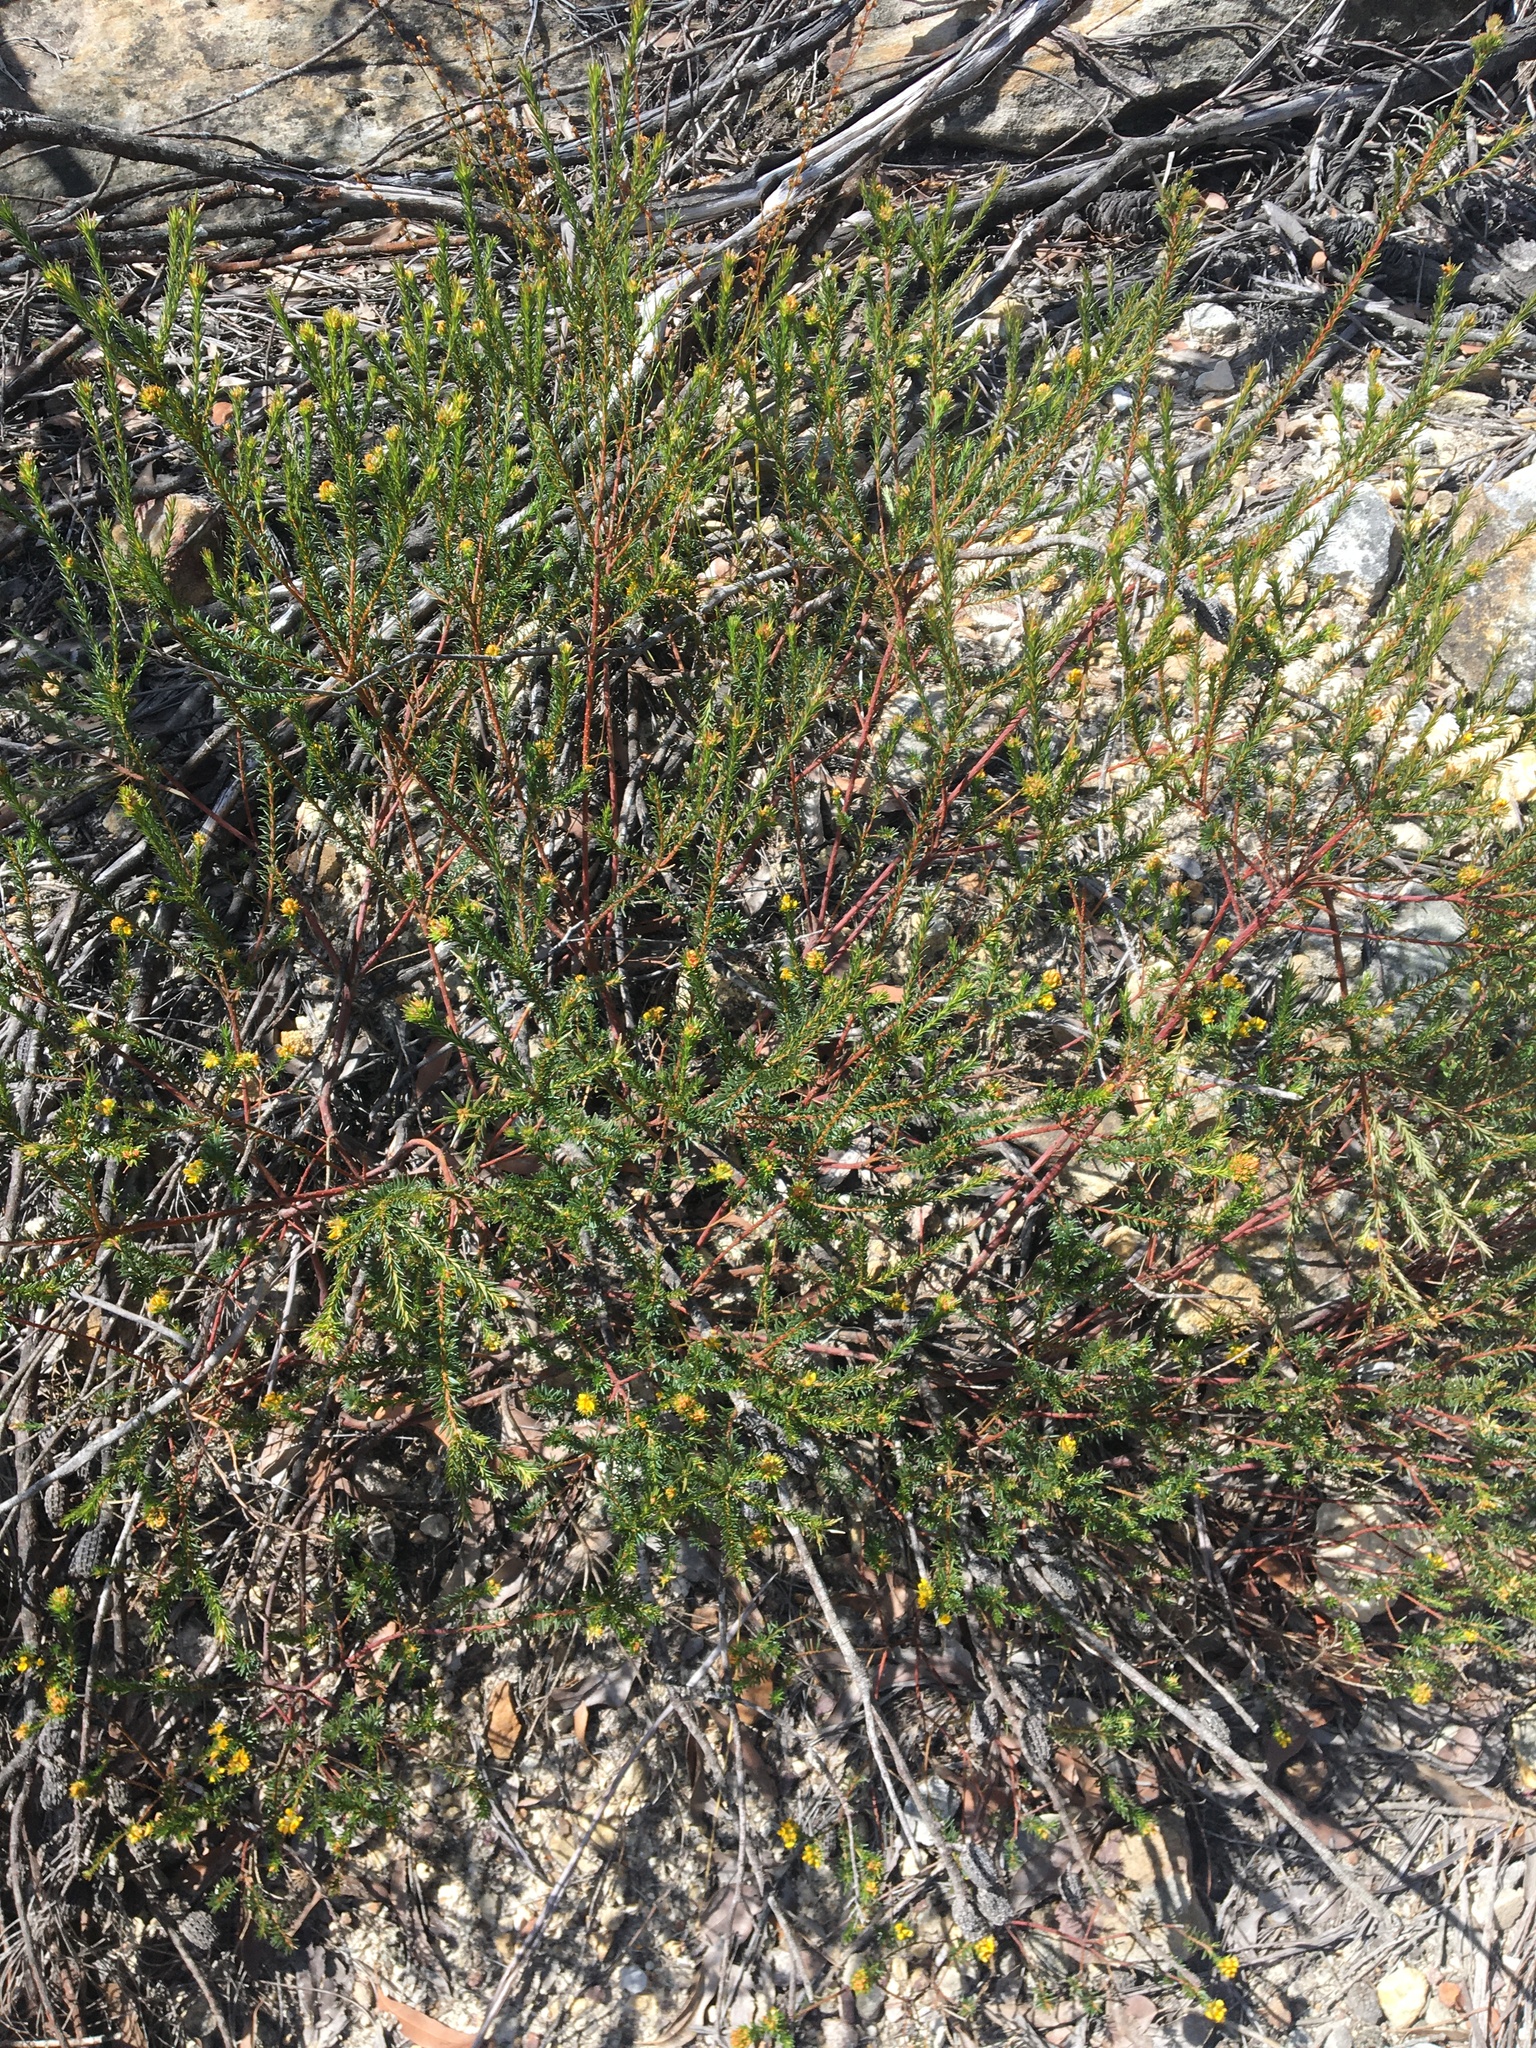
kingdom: Plantae
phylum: Tracheophyta
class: Magnoliopsida
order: Fabales
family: Fabaceae
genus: Phyllota
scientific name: Phyllota phylicoides
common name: Heath phyllota
